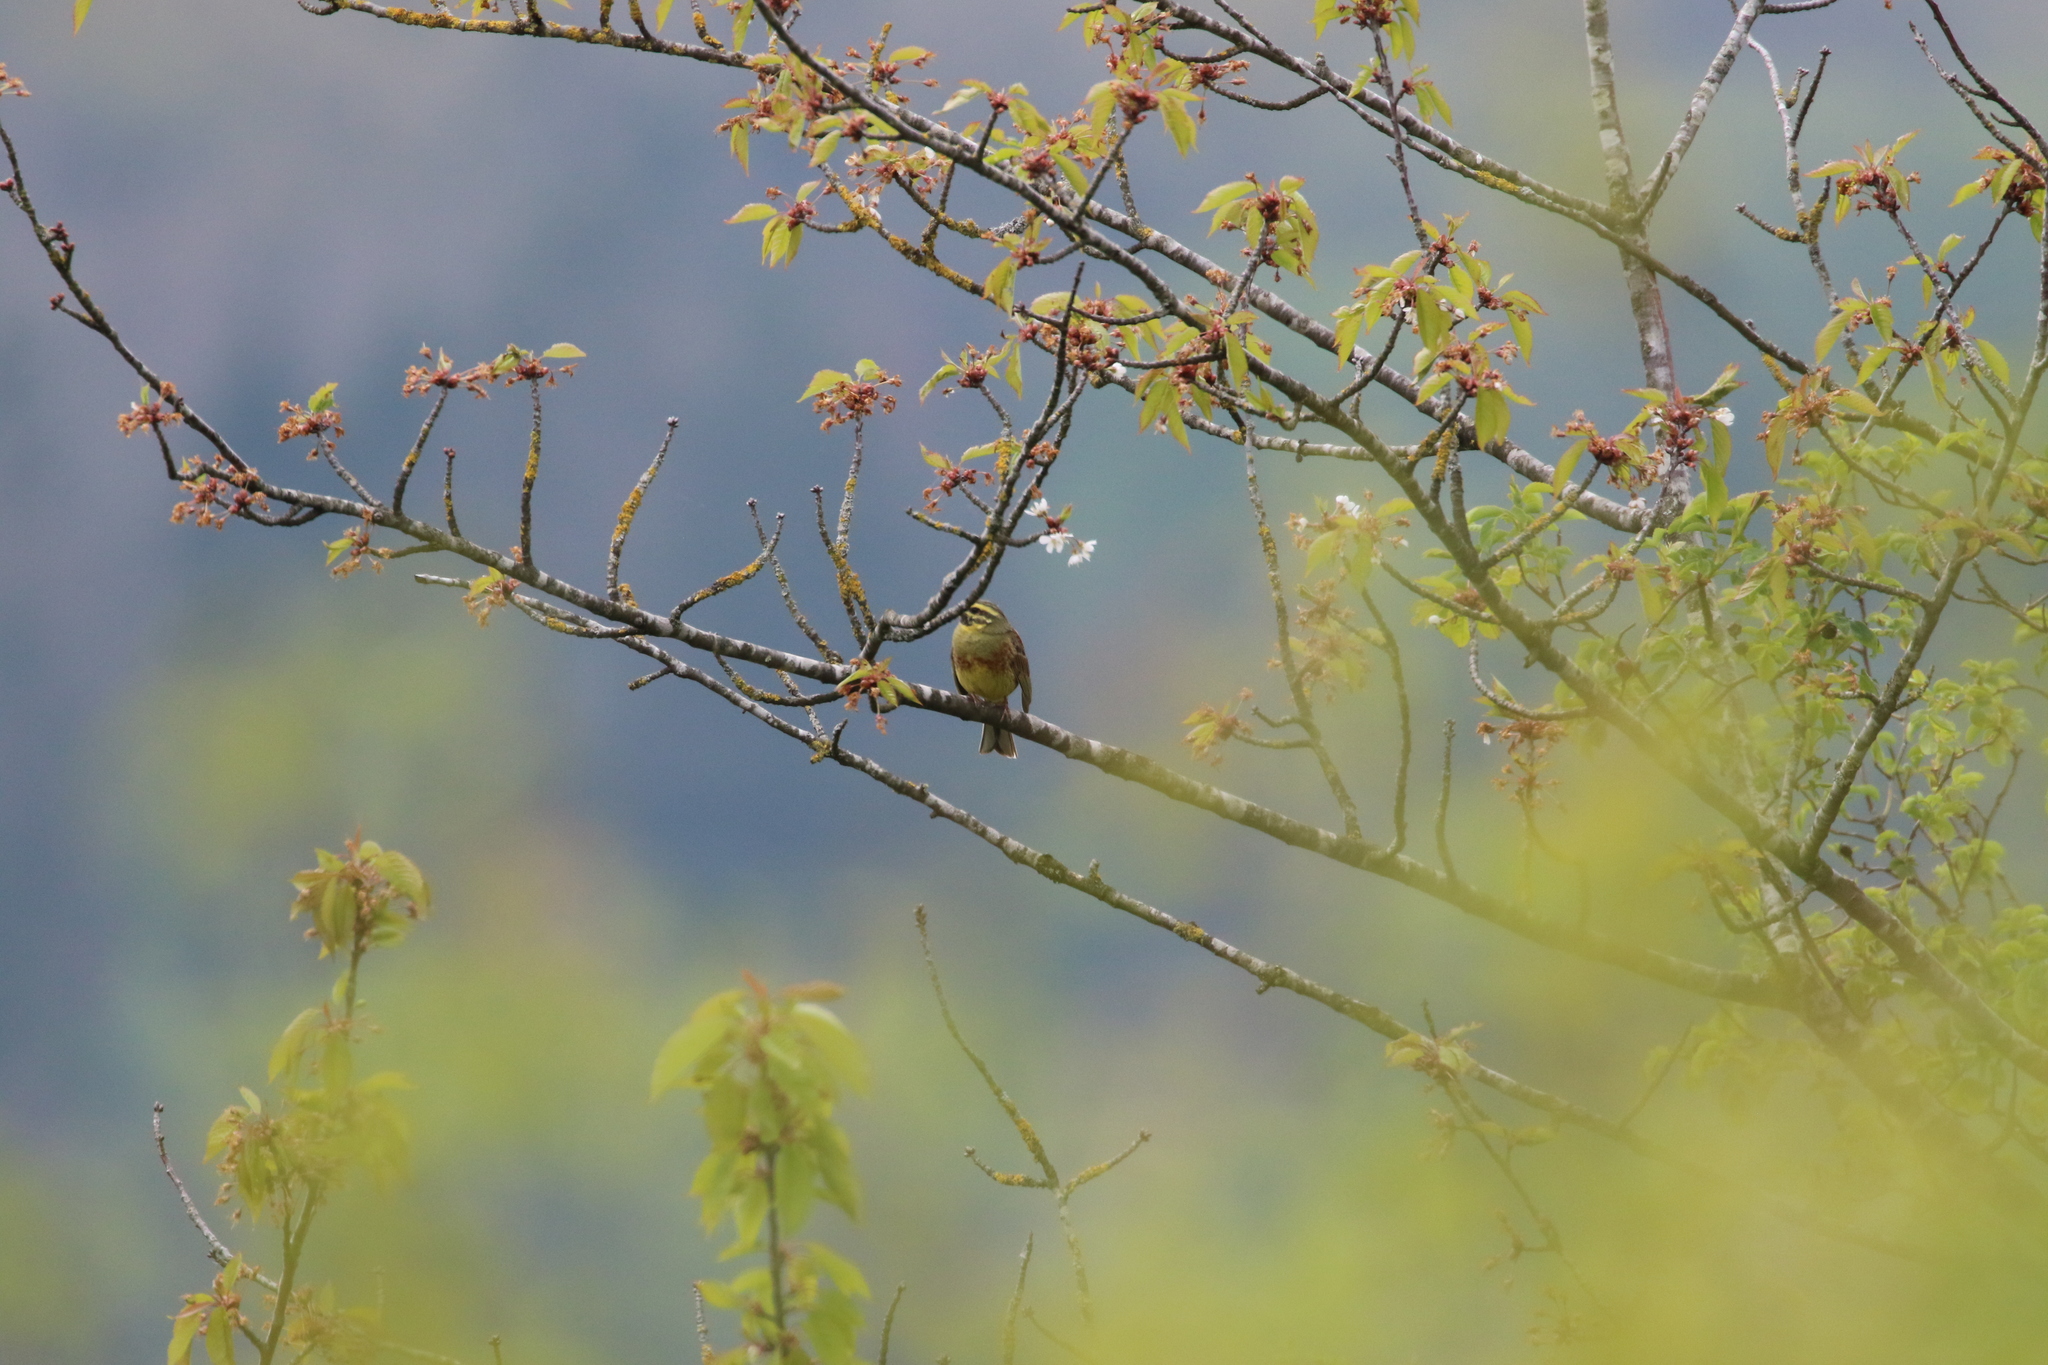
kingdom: Animalia
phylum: Chordata
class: Aves
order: Passeriformes
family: Emberizidae
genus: Emberiza
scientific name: Emberiza cirlus
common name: Cirl bunting
